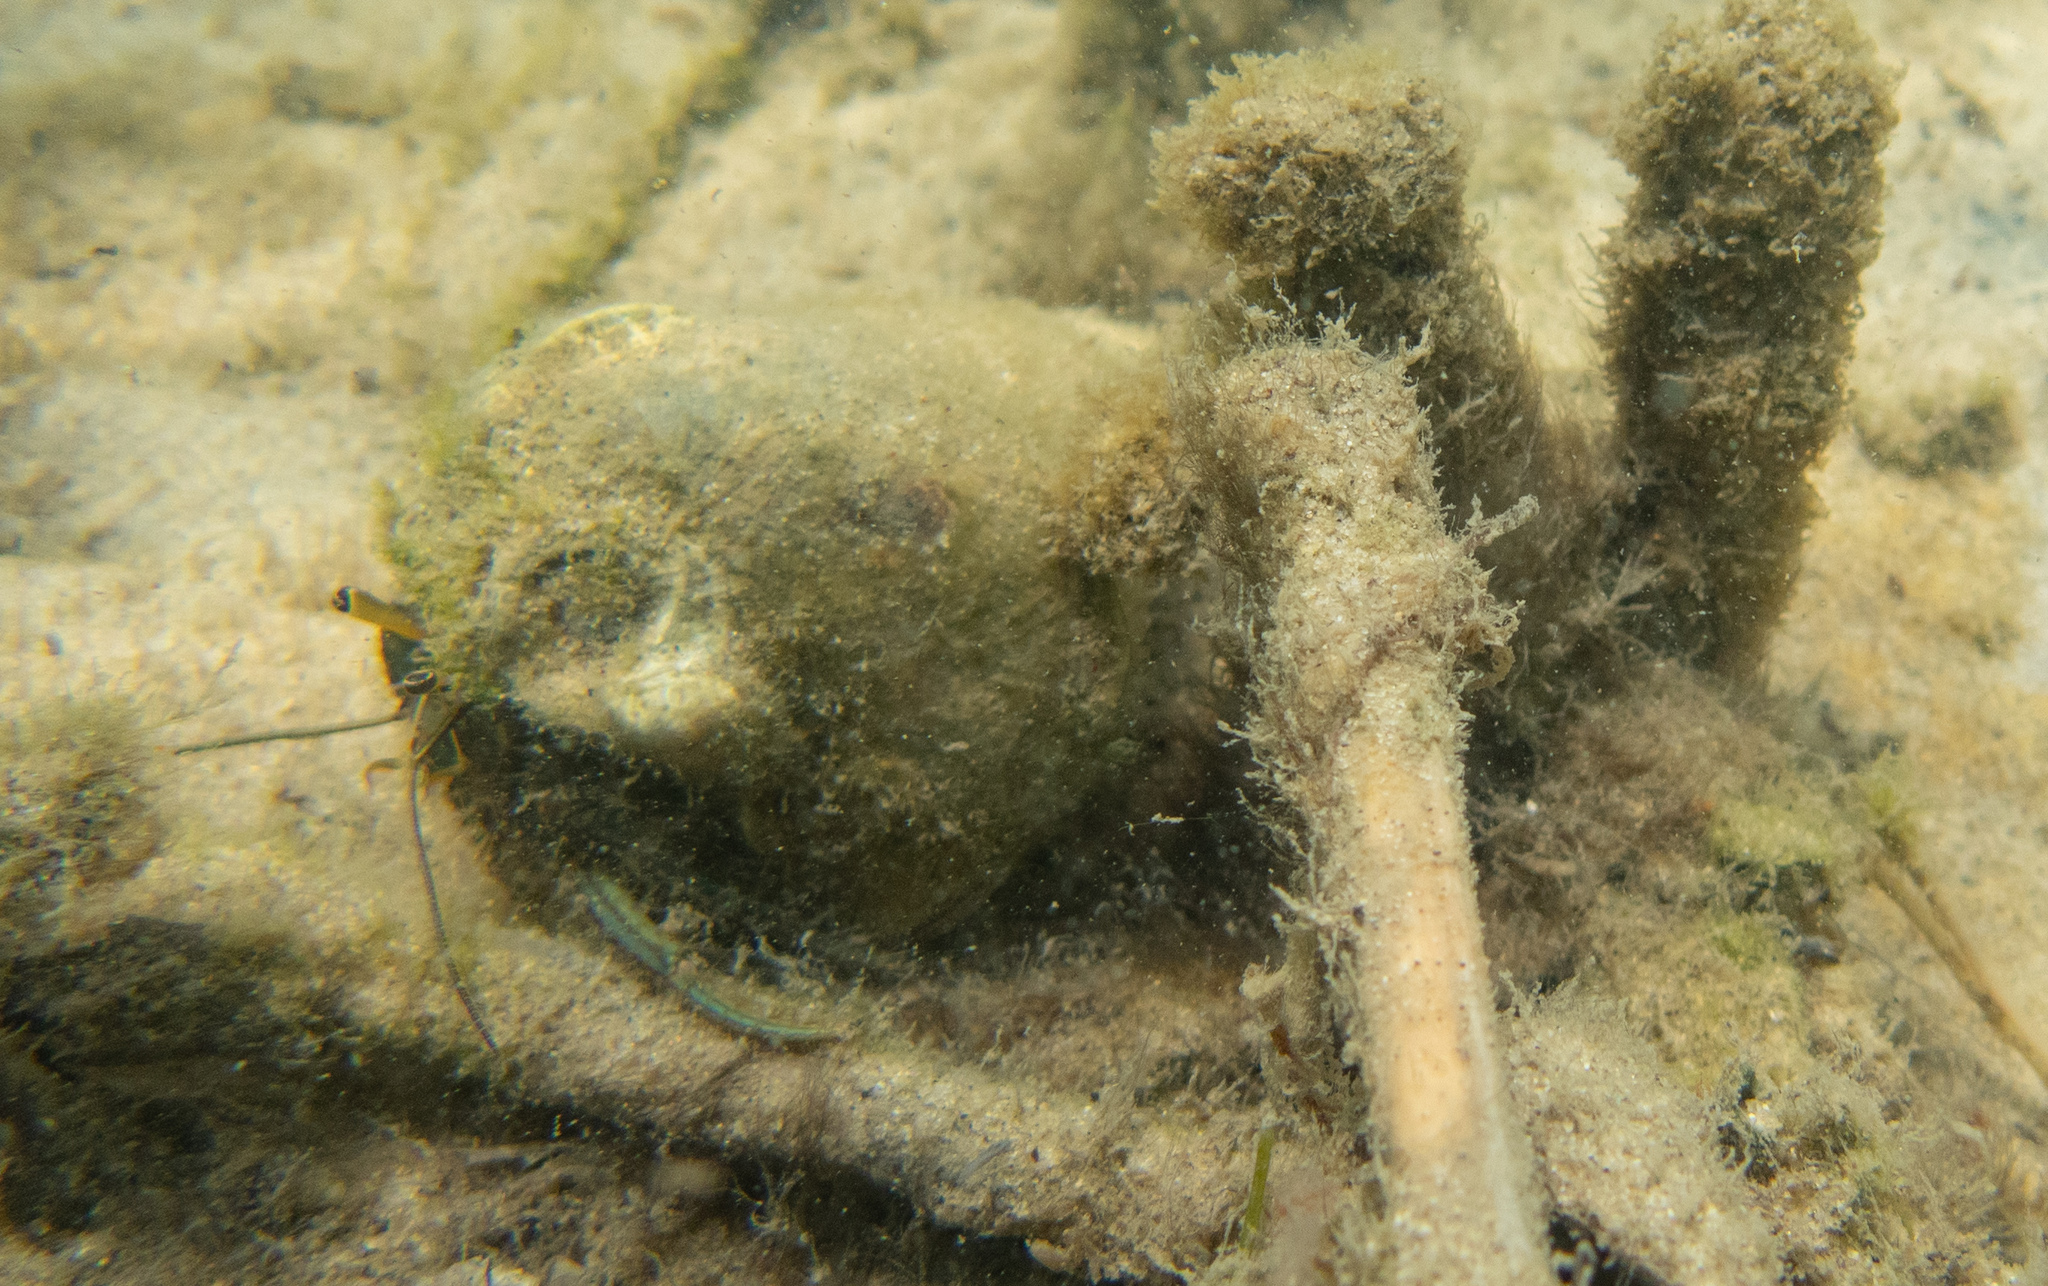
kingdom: Animalia
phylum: Arthropoda
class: Malacostraca
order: Decapoda
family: Diogenidae
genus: Clibanarius
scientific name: Clibanarius longitarsus
